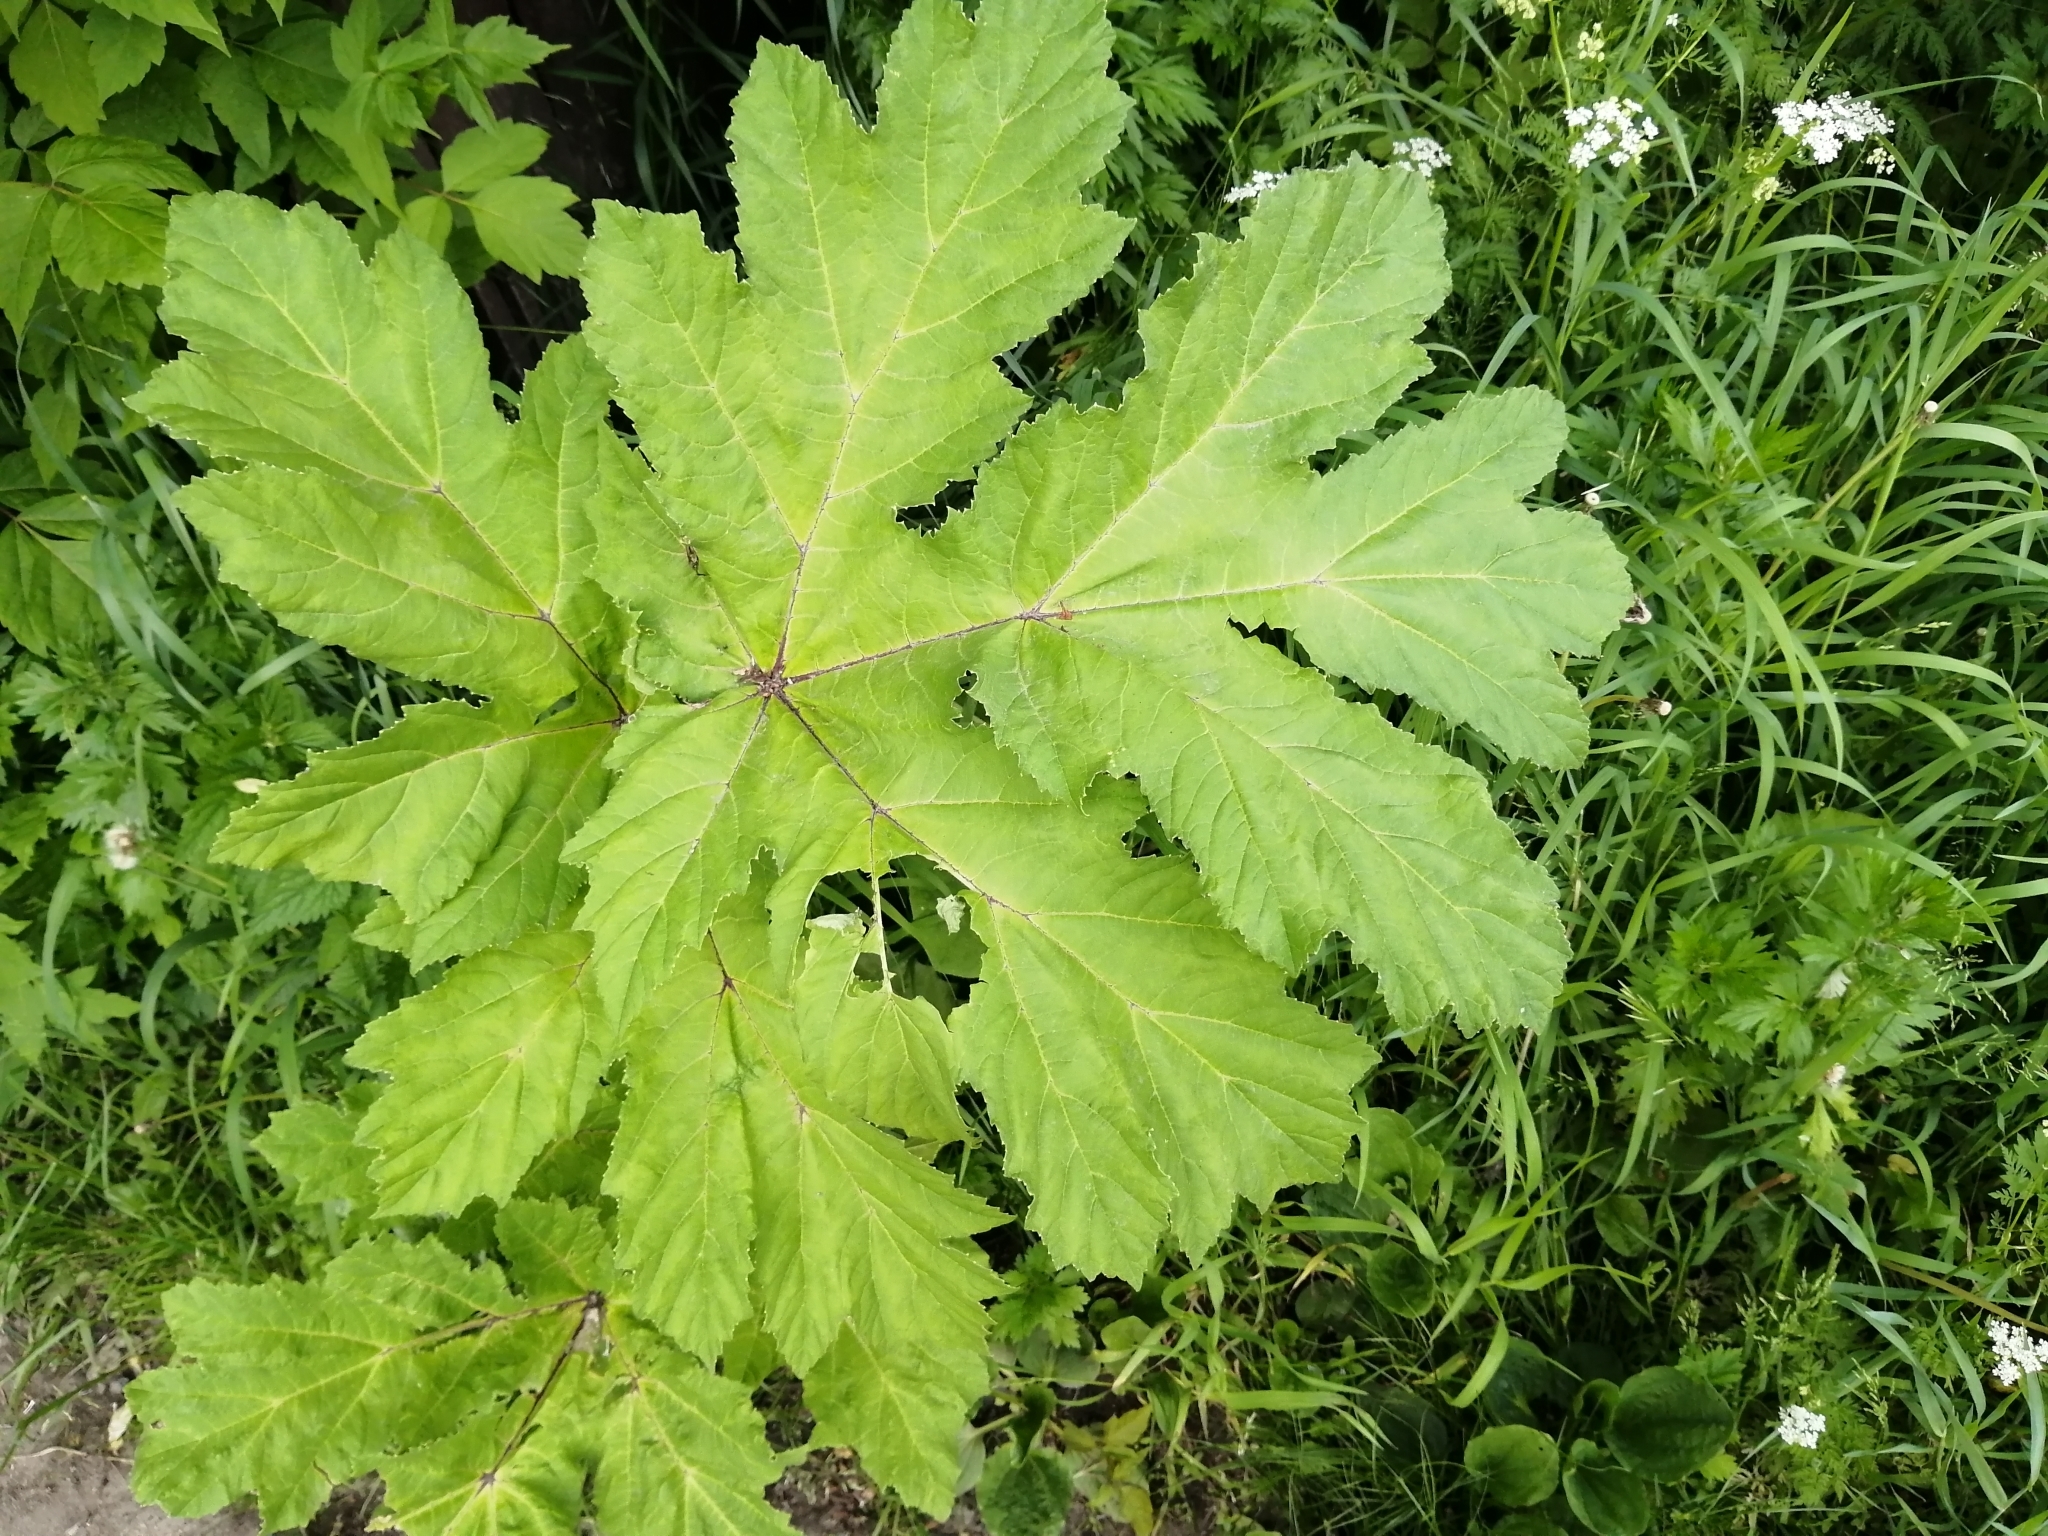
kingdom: Plantae
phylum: Tracheophyta
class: Magnoliopsida
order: Apiales
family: Apiaceae
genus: Heracleum
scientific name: Heracleum sosnowskyi
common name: Sosnowsky's hogweed
